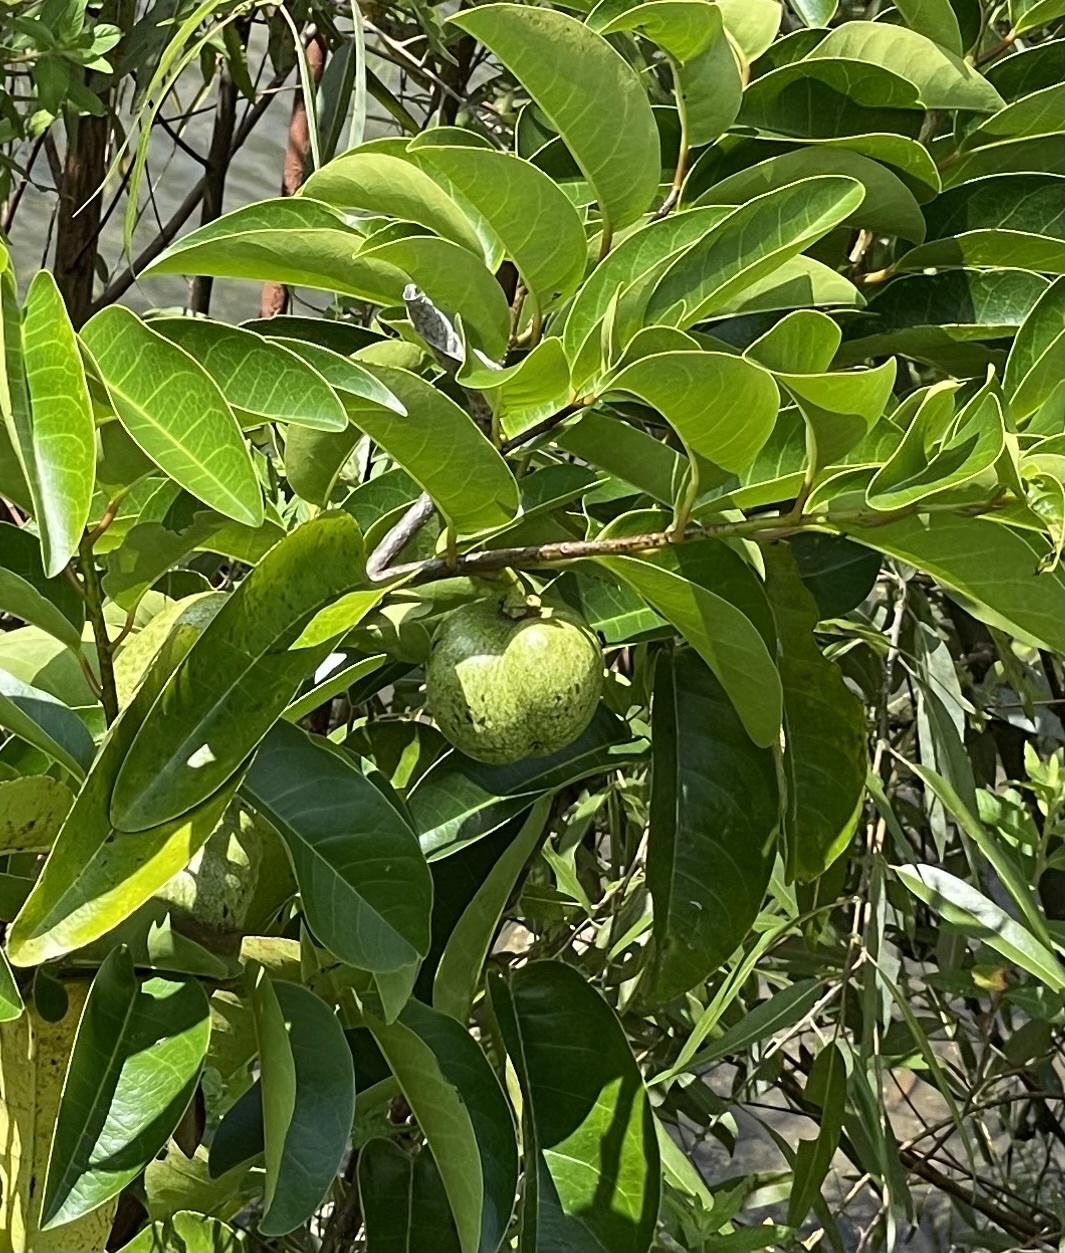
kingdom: Plantae
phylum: Tracheophyta
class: Magnoliopsida
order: Magnoliales
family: Annonaceae
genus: Annona
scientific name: Annona glabra
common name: Monkey apple
